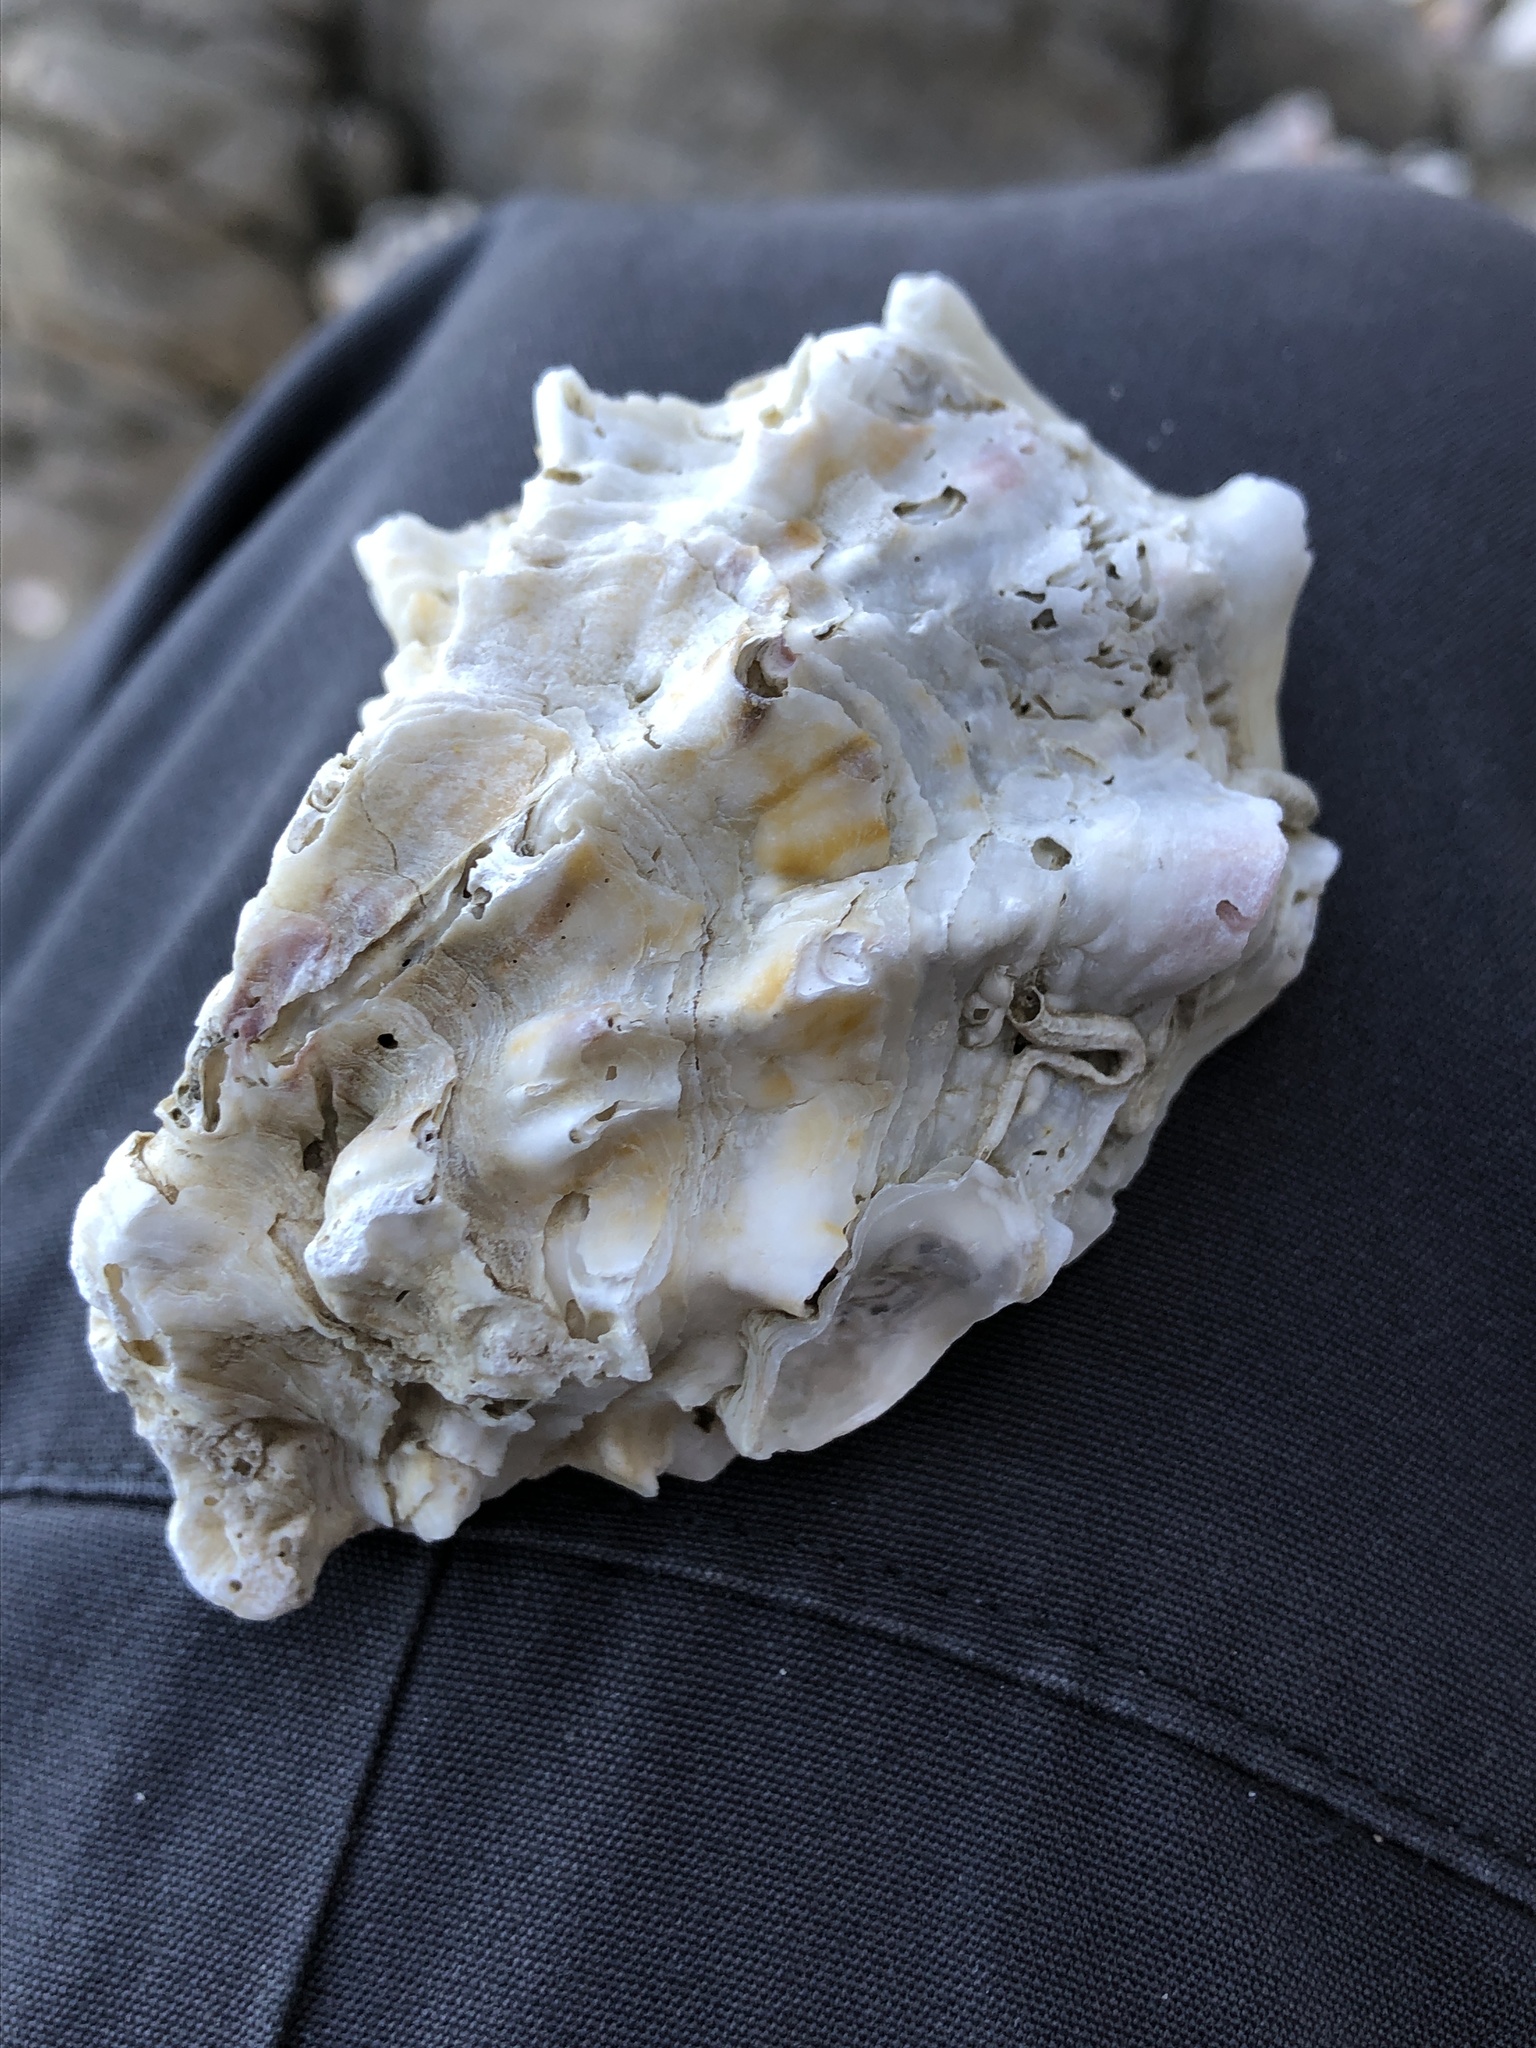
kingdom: Animalia
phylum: Mollusca
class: Bivalvia
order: Ostreida
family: Ostreidae
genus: Magallana
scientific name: Magallana gigas
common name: Pacific oyster
